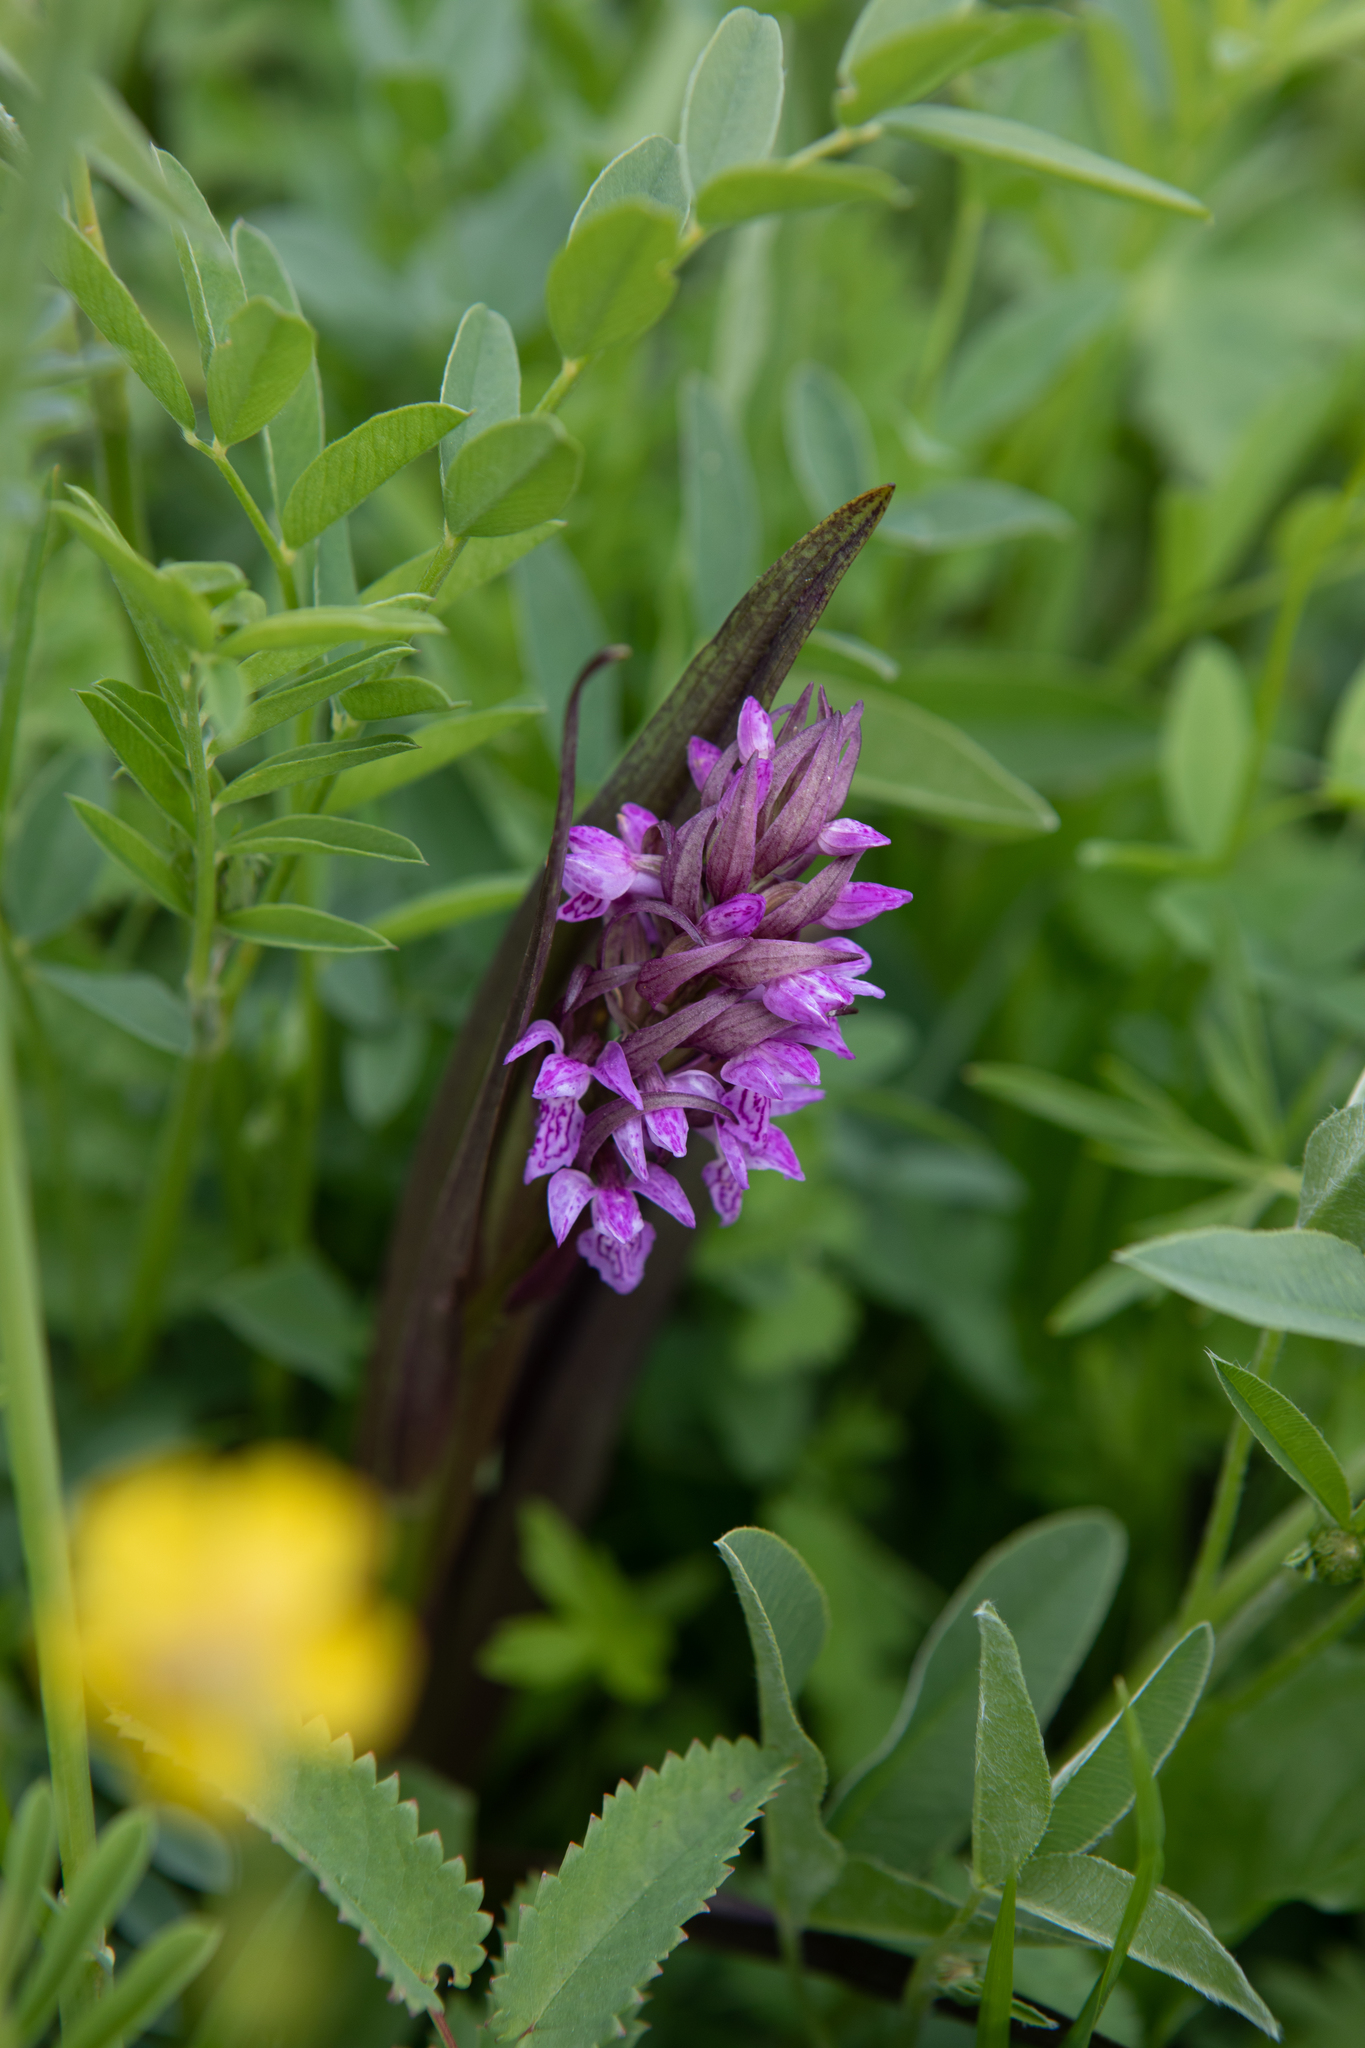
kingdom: Plantae
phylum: Tracheophyta
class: Liliopsida
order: Asparagales
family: Orchidaceae
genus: Dactylorhiza
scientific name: Dactylorhiza incarnata
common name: Early marsh-orchid
